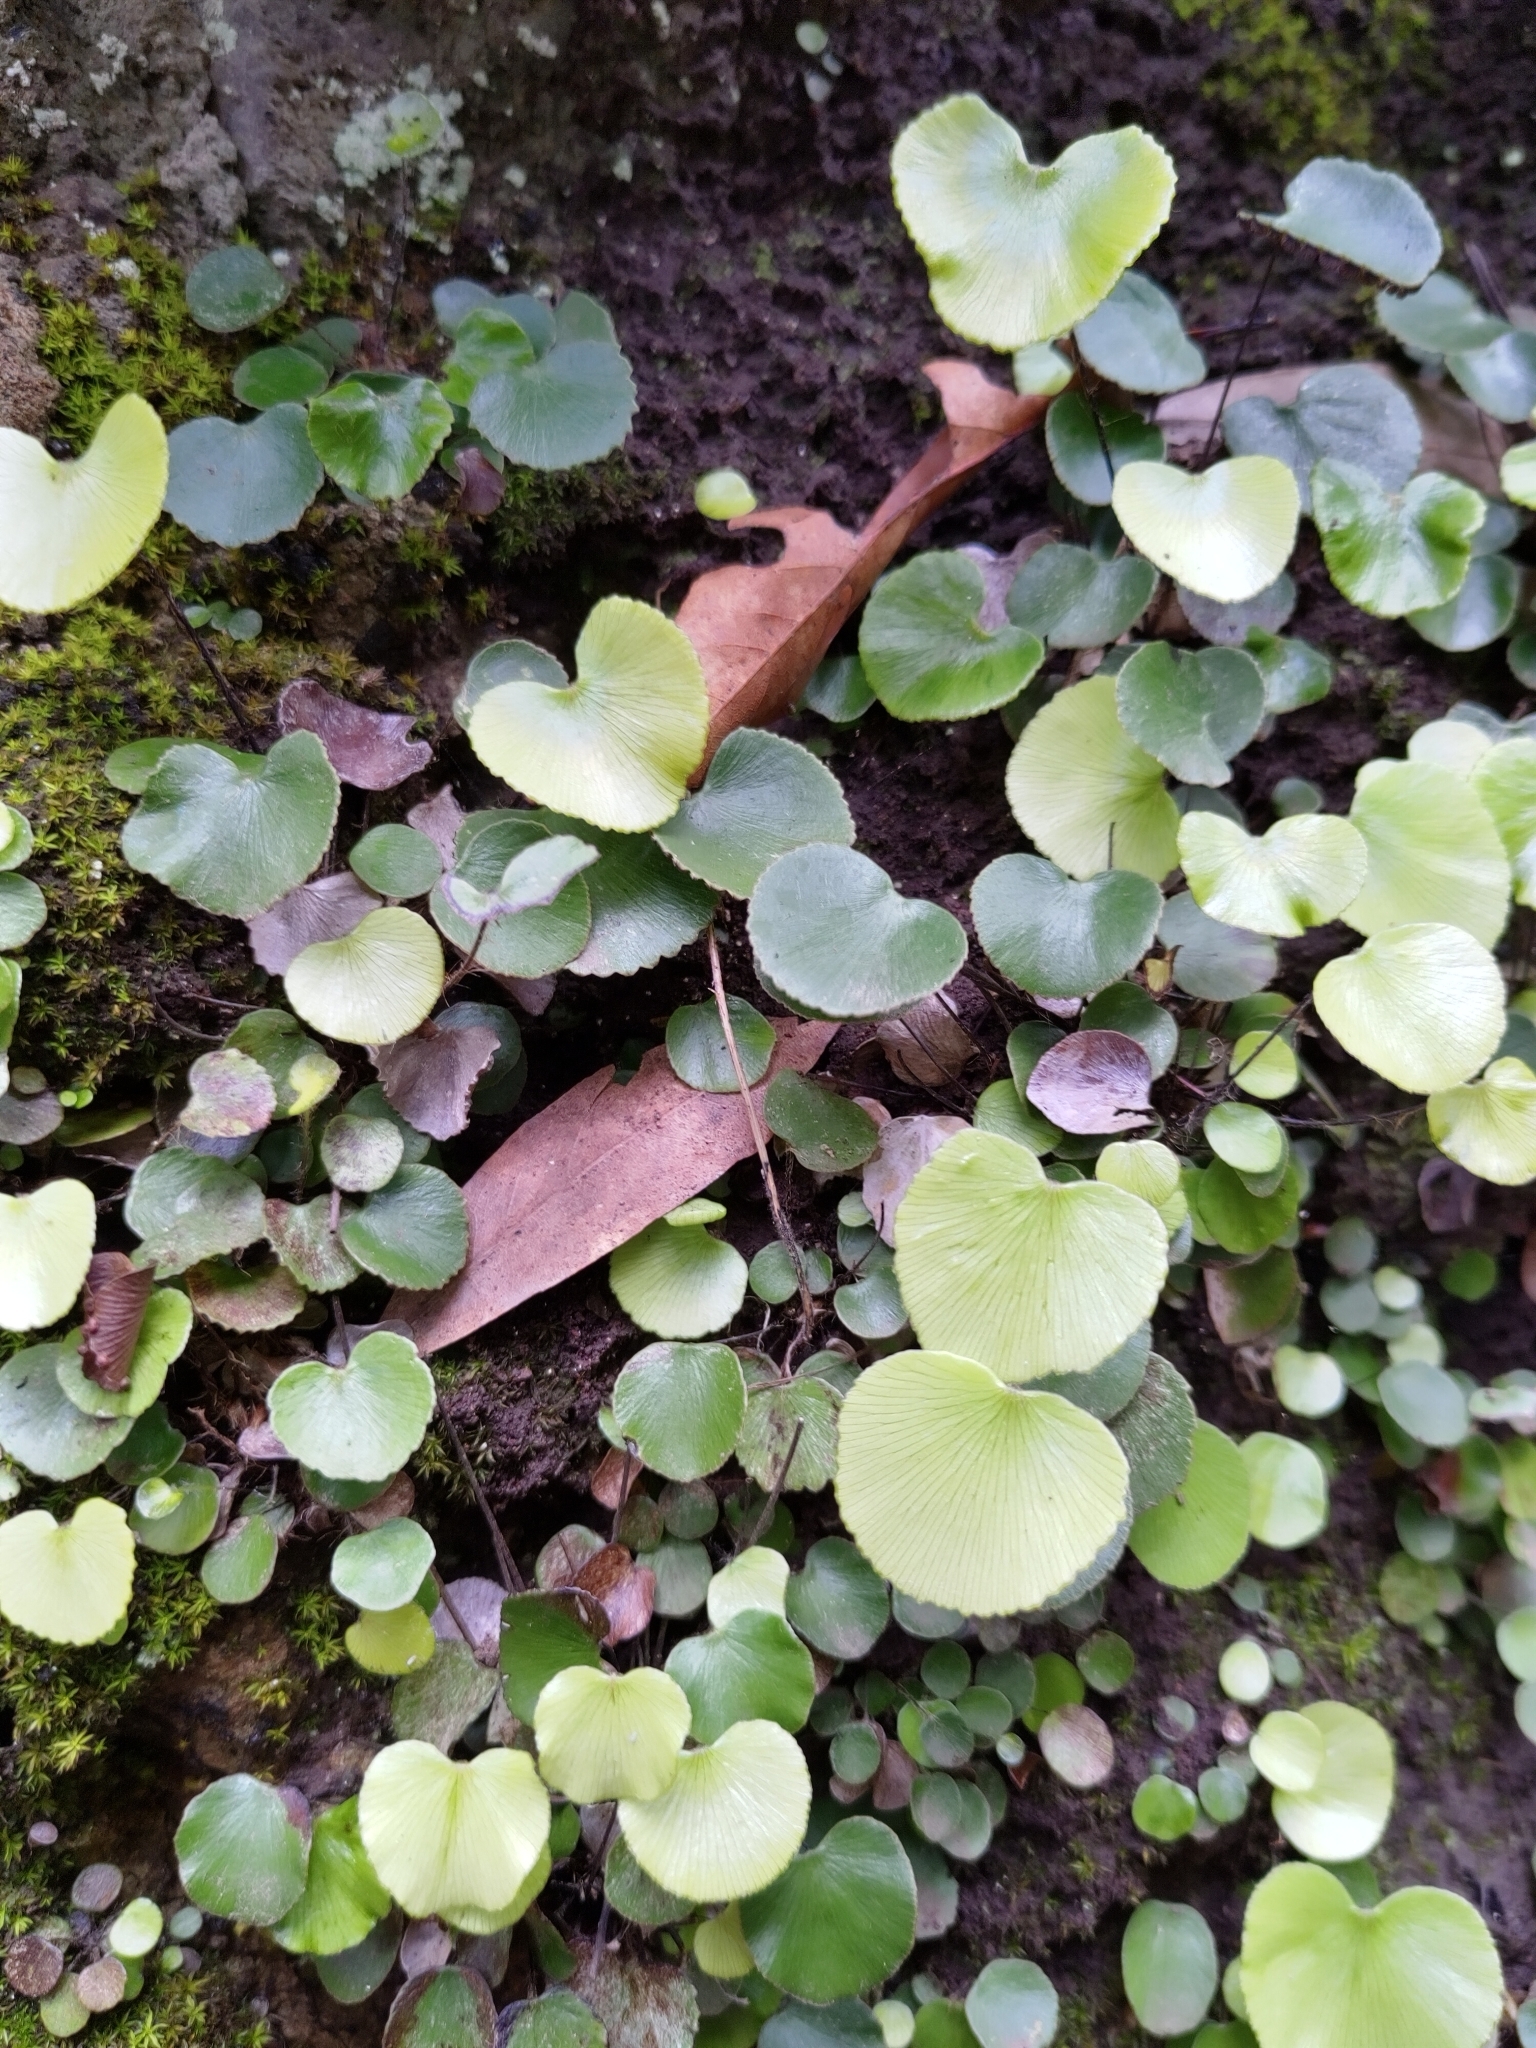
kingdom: Plantae
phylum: Tracheophyta
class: Polypodiopsida
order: Polypodiales
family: Pteridaceae
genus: Adiantum
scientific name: Adiantum reniforme
